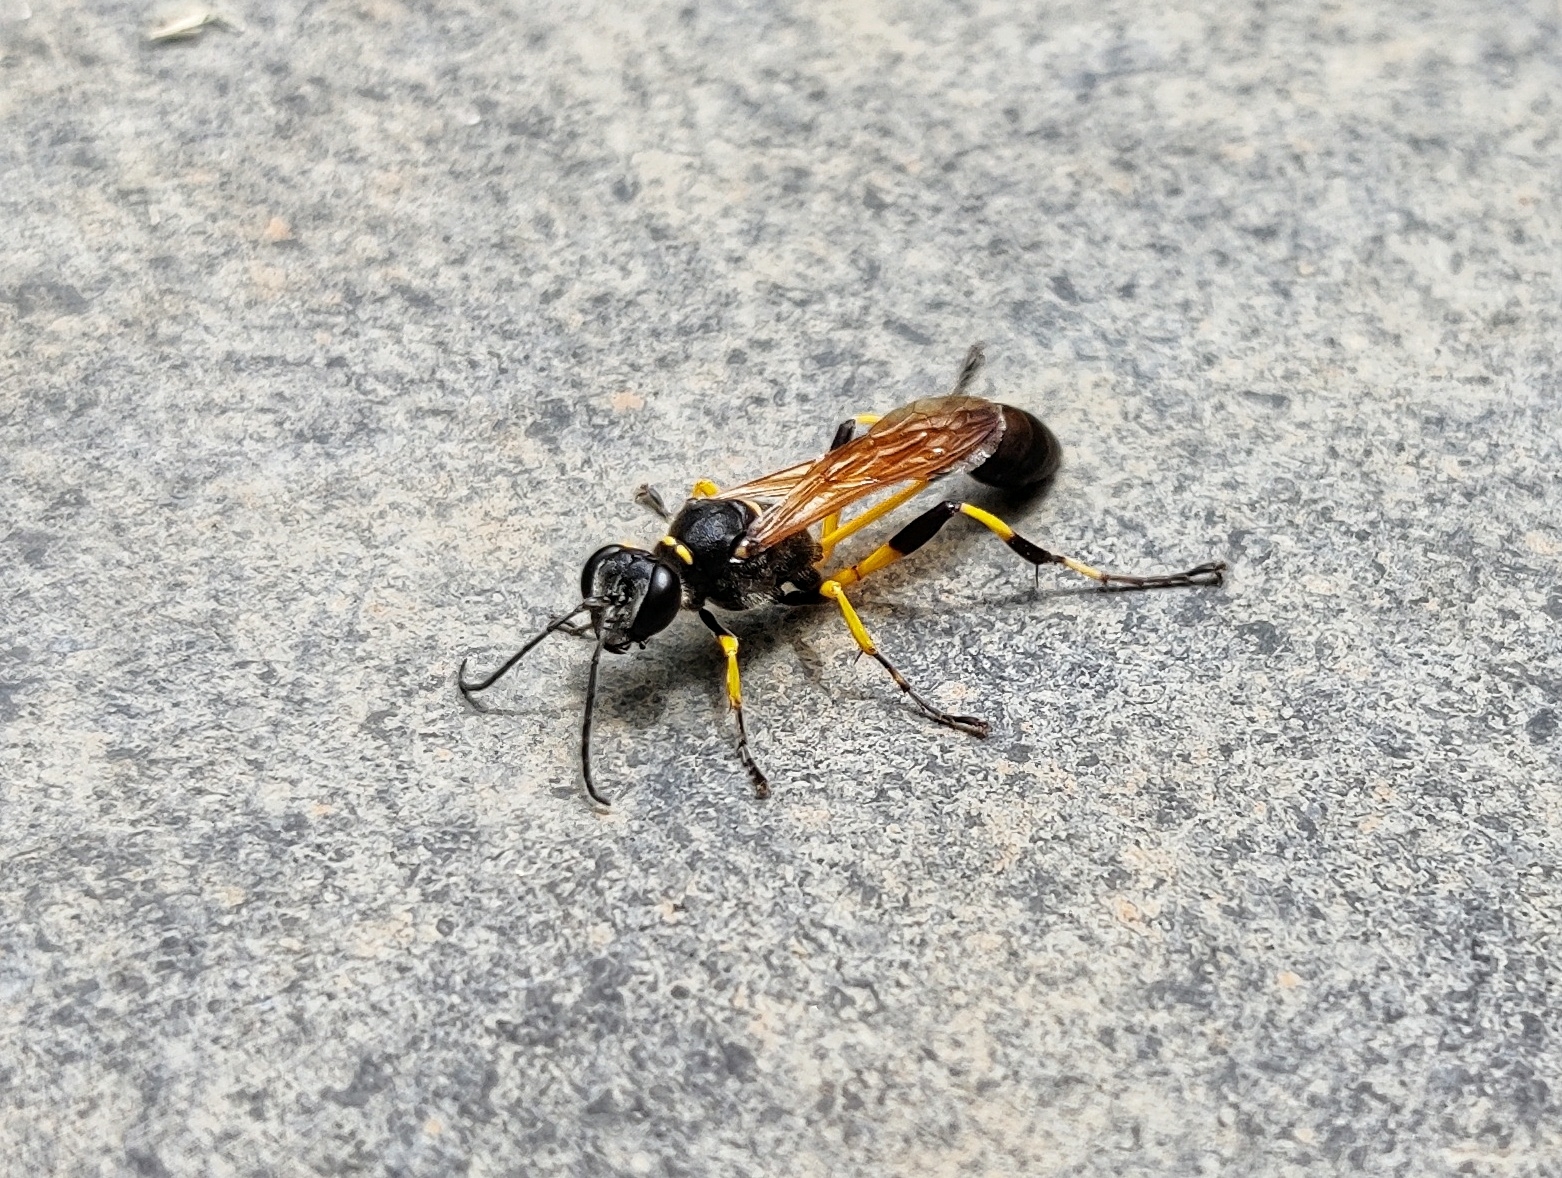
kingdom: Animalia
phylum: Arthropoda
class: Insecta
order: Hymenoptera
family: Sphecidae
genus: Sceliphron
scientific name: Sceliphron madraspatanum
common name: Mud dauber
